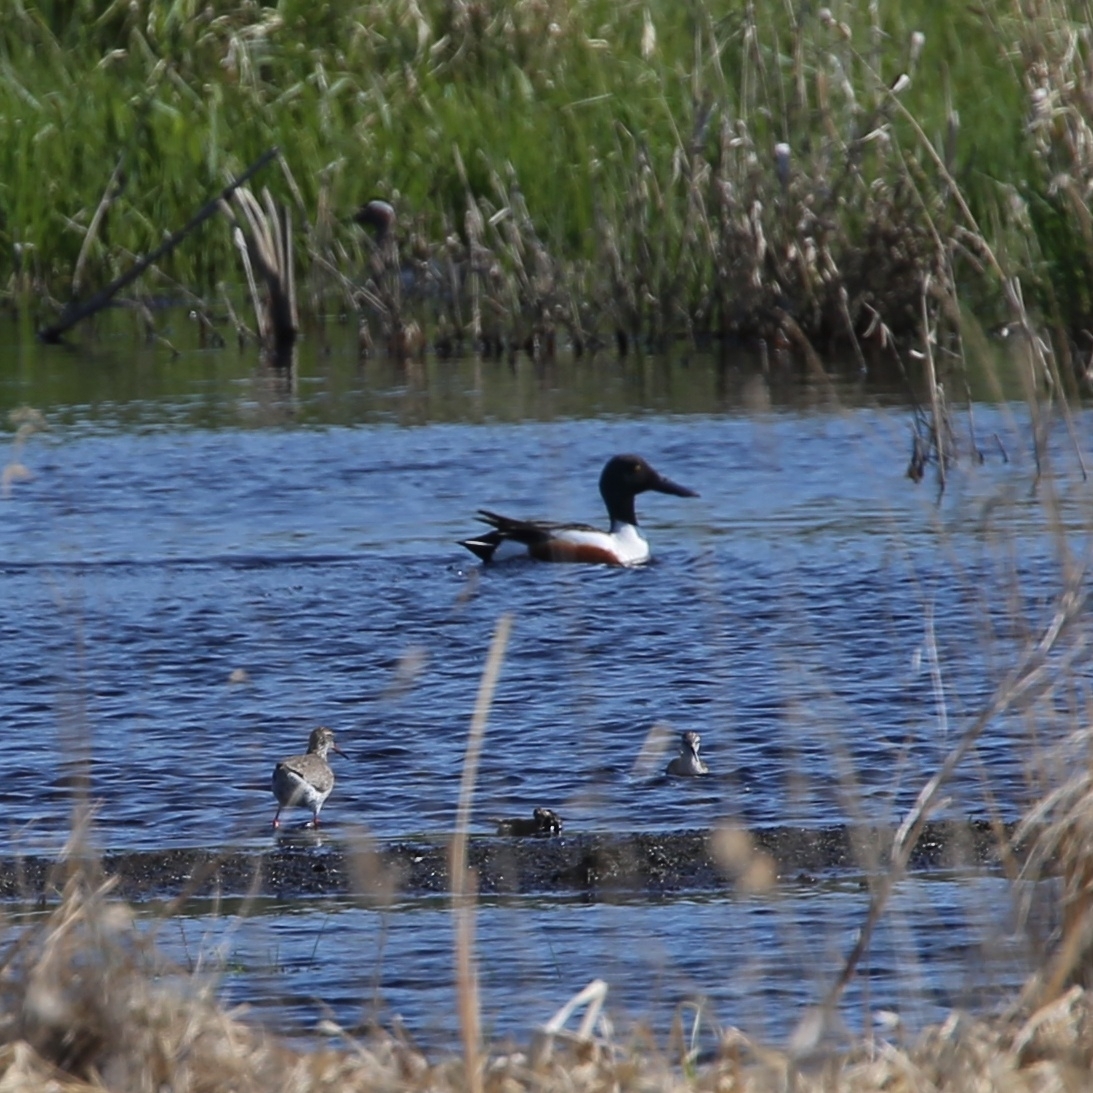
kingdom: Animalia
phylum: Chordata
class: Aves
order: Anseriformes
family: Anatidae
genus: Spatula
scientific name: Spatula clypeata
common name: Northern shoveler
